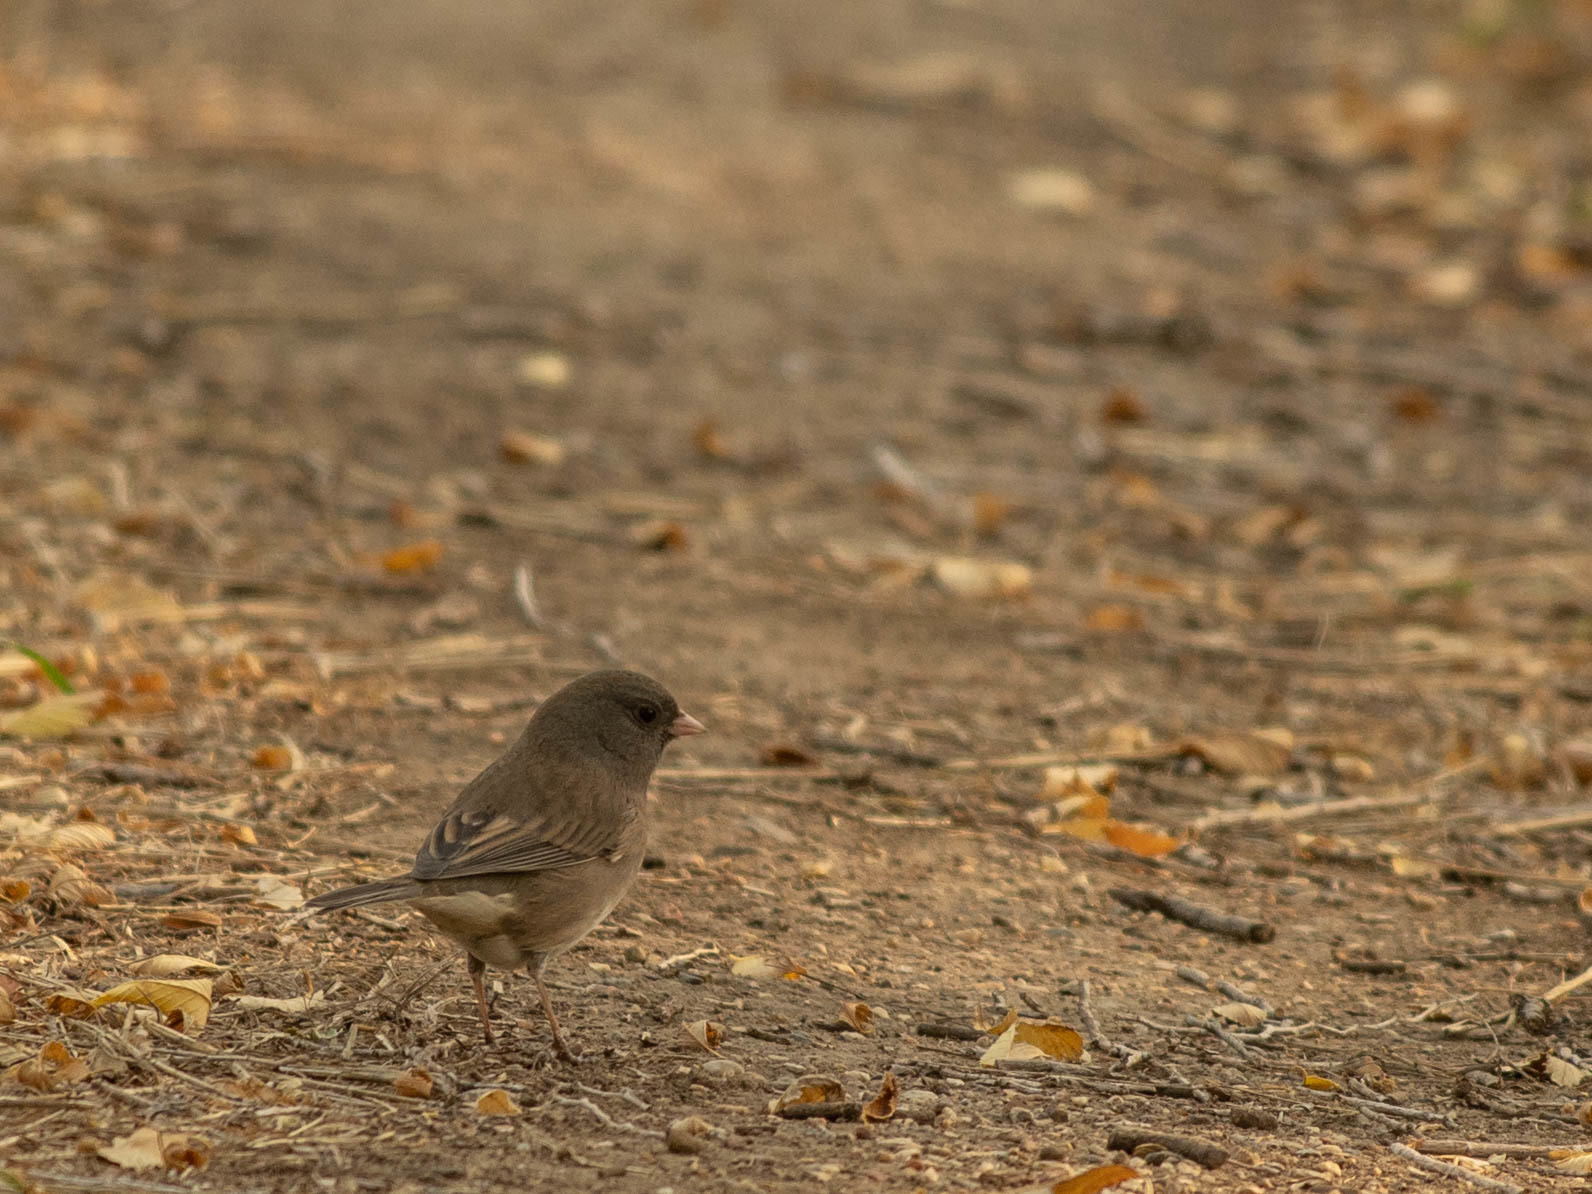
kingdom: Animalia
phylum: Chordata
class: Aves
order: Passeriformes
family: Passerellidae
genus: Junco
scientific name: Junco hyemalis
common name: Dark-eyed junco
